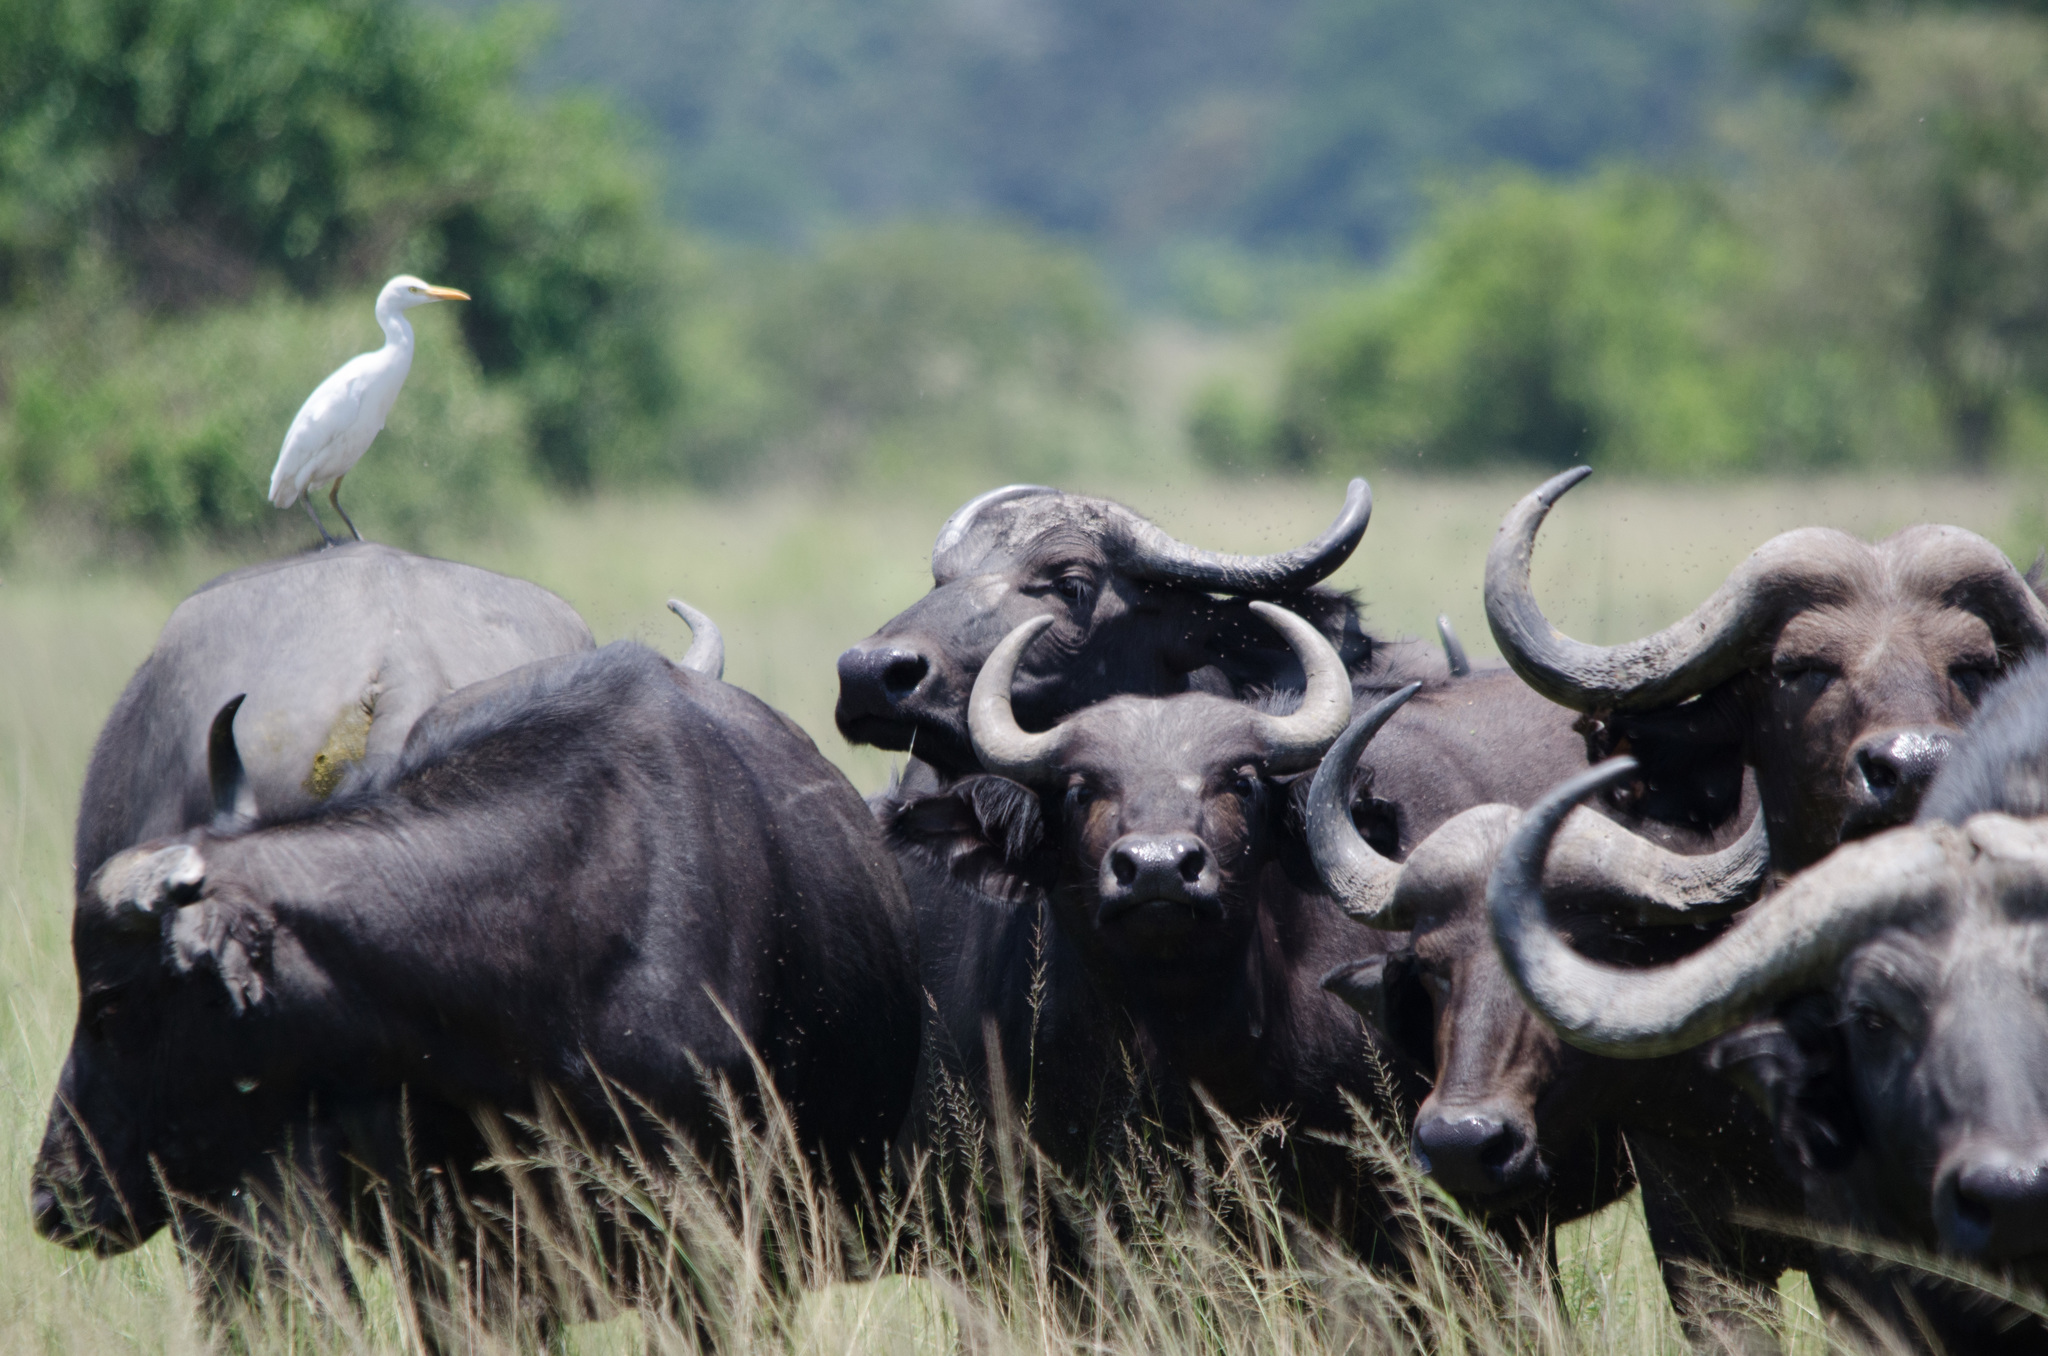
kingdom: Animalia
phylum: Chordata
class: Mammalia
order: Artiodactyla
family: Bovidae
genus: Syncerus
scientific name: Syncerus caffer
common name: African buffalo
